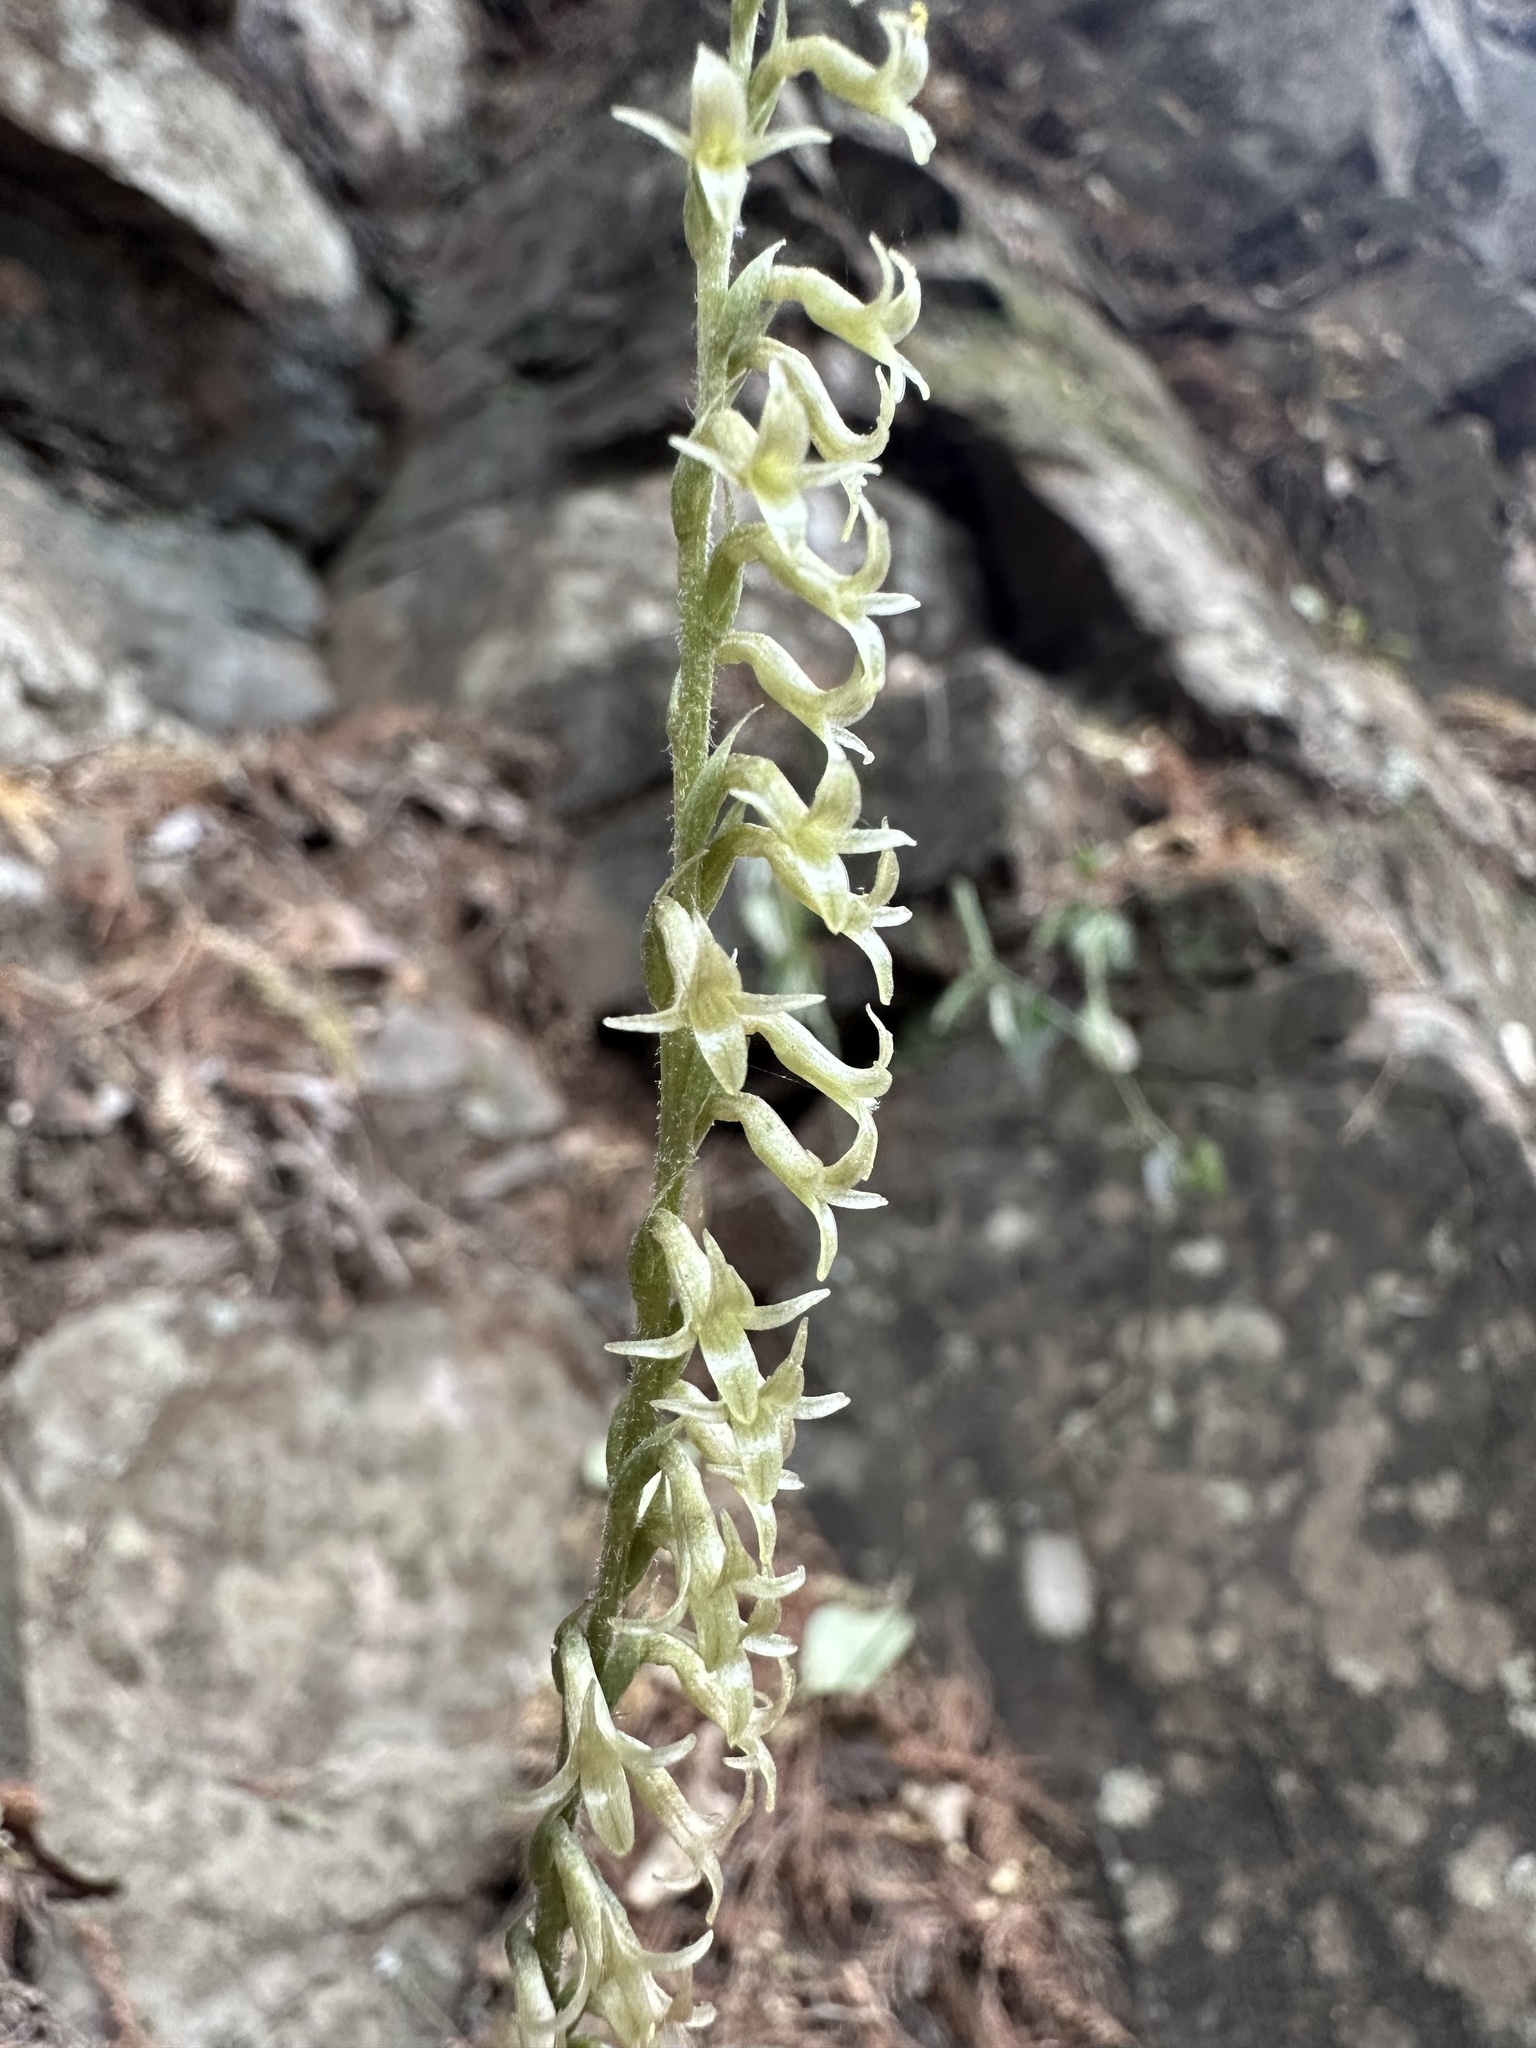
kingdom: Plantae
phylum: Tracheophyta
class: Liliopsida
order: Asparagales
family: Orchidaceae
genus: Mesadenus
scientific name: Mesadenus polyanthus
